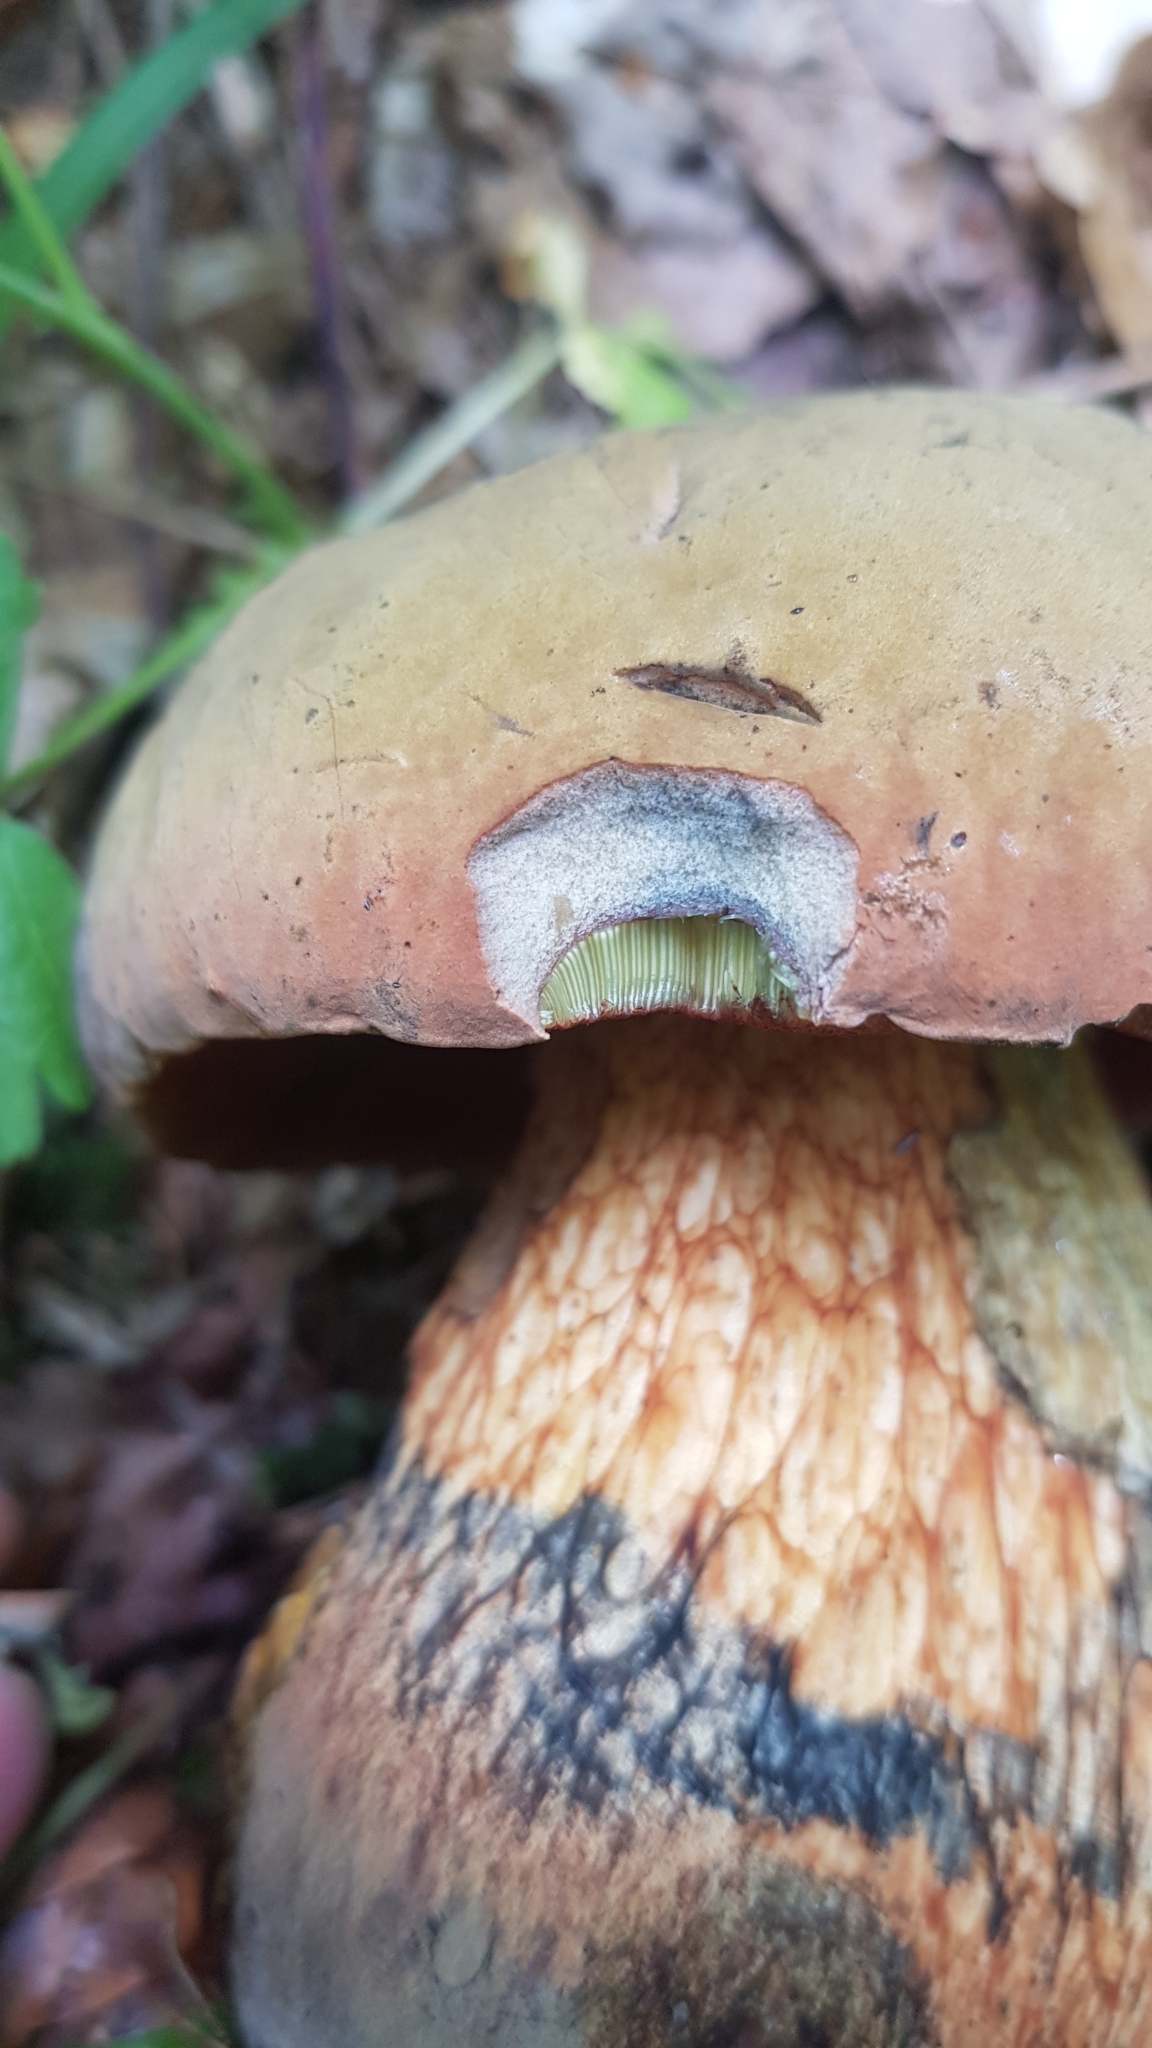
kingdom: Fungi
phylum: Basidiomycota
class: Agaricomycetes
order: Boletales
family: Boletaceae
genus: Suillellus
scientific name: Suillellus luridus
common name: Lurid bolete
